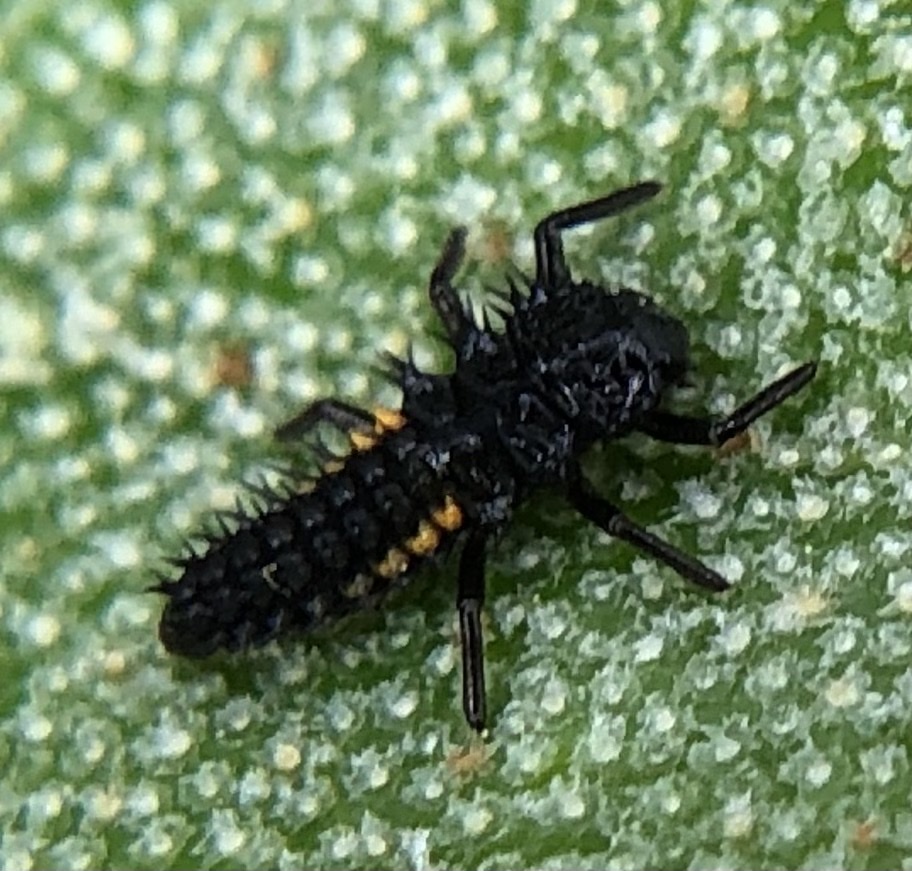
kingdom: Animalia
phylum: Arthropoda
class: Insecta
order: Coleoptera
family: Coccinellidae
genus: Harmonia
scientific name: Harmonia axyridis
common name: Harlequin ladybird
